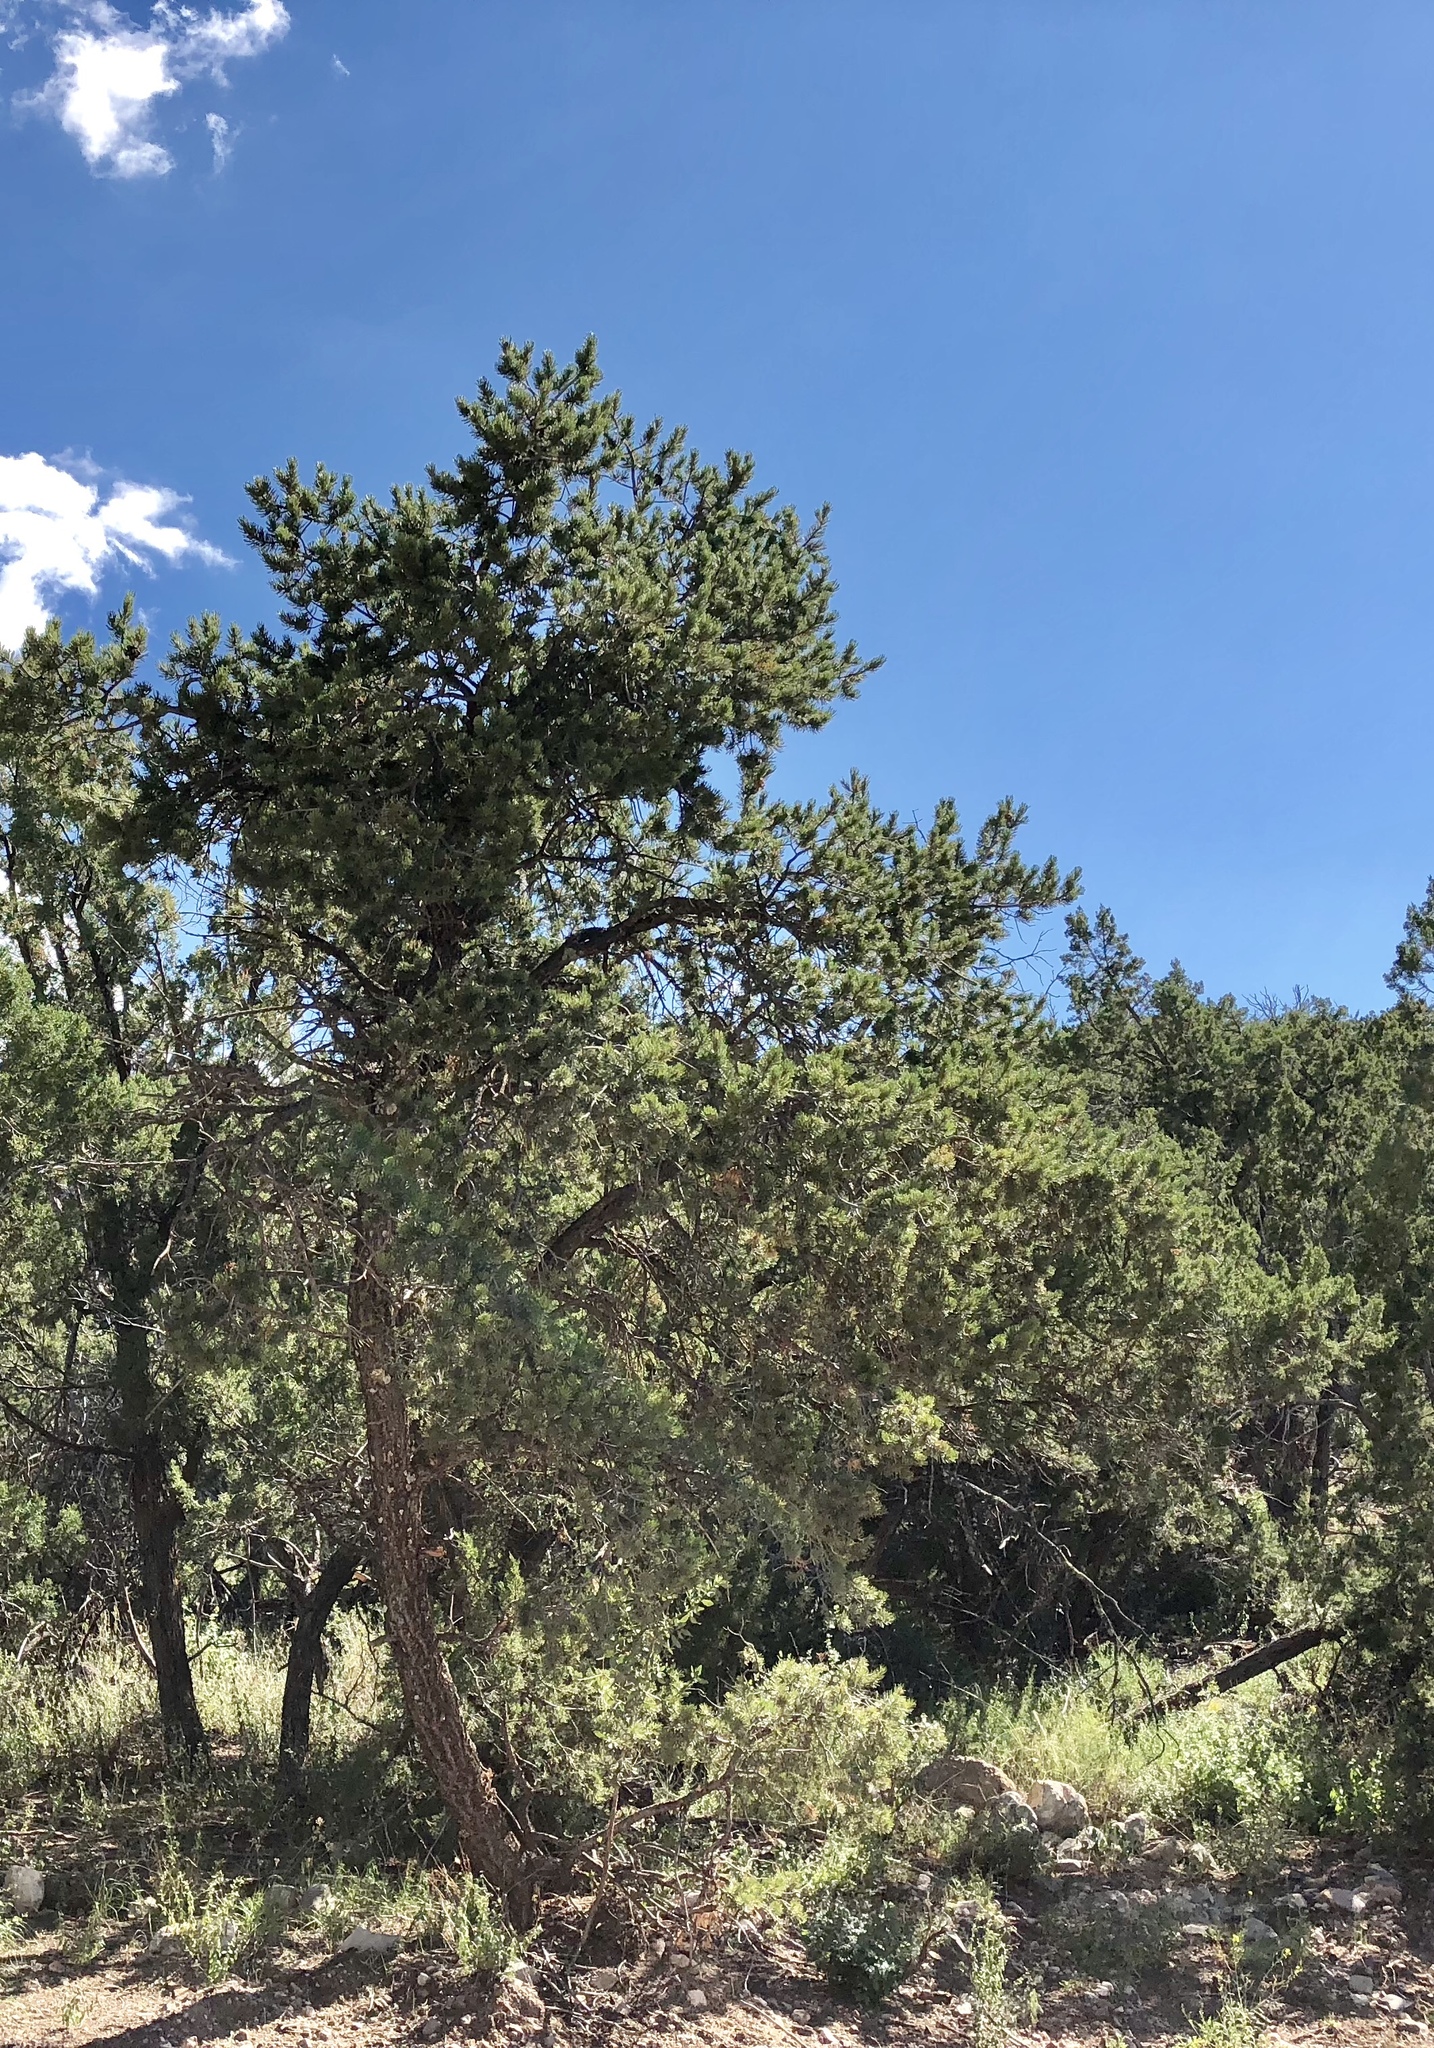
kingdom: Plantae
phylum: Tracheophyta
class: Pinopsida
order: Pinales
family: Pinaceae
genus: Pinus
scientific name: Pinus edulis
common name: Colorado pinyon
